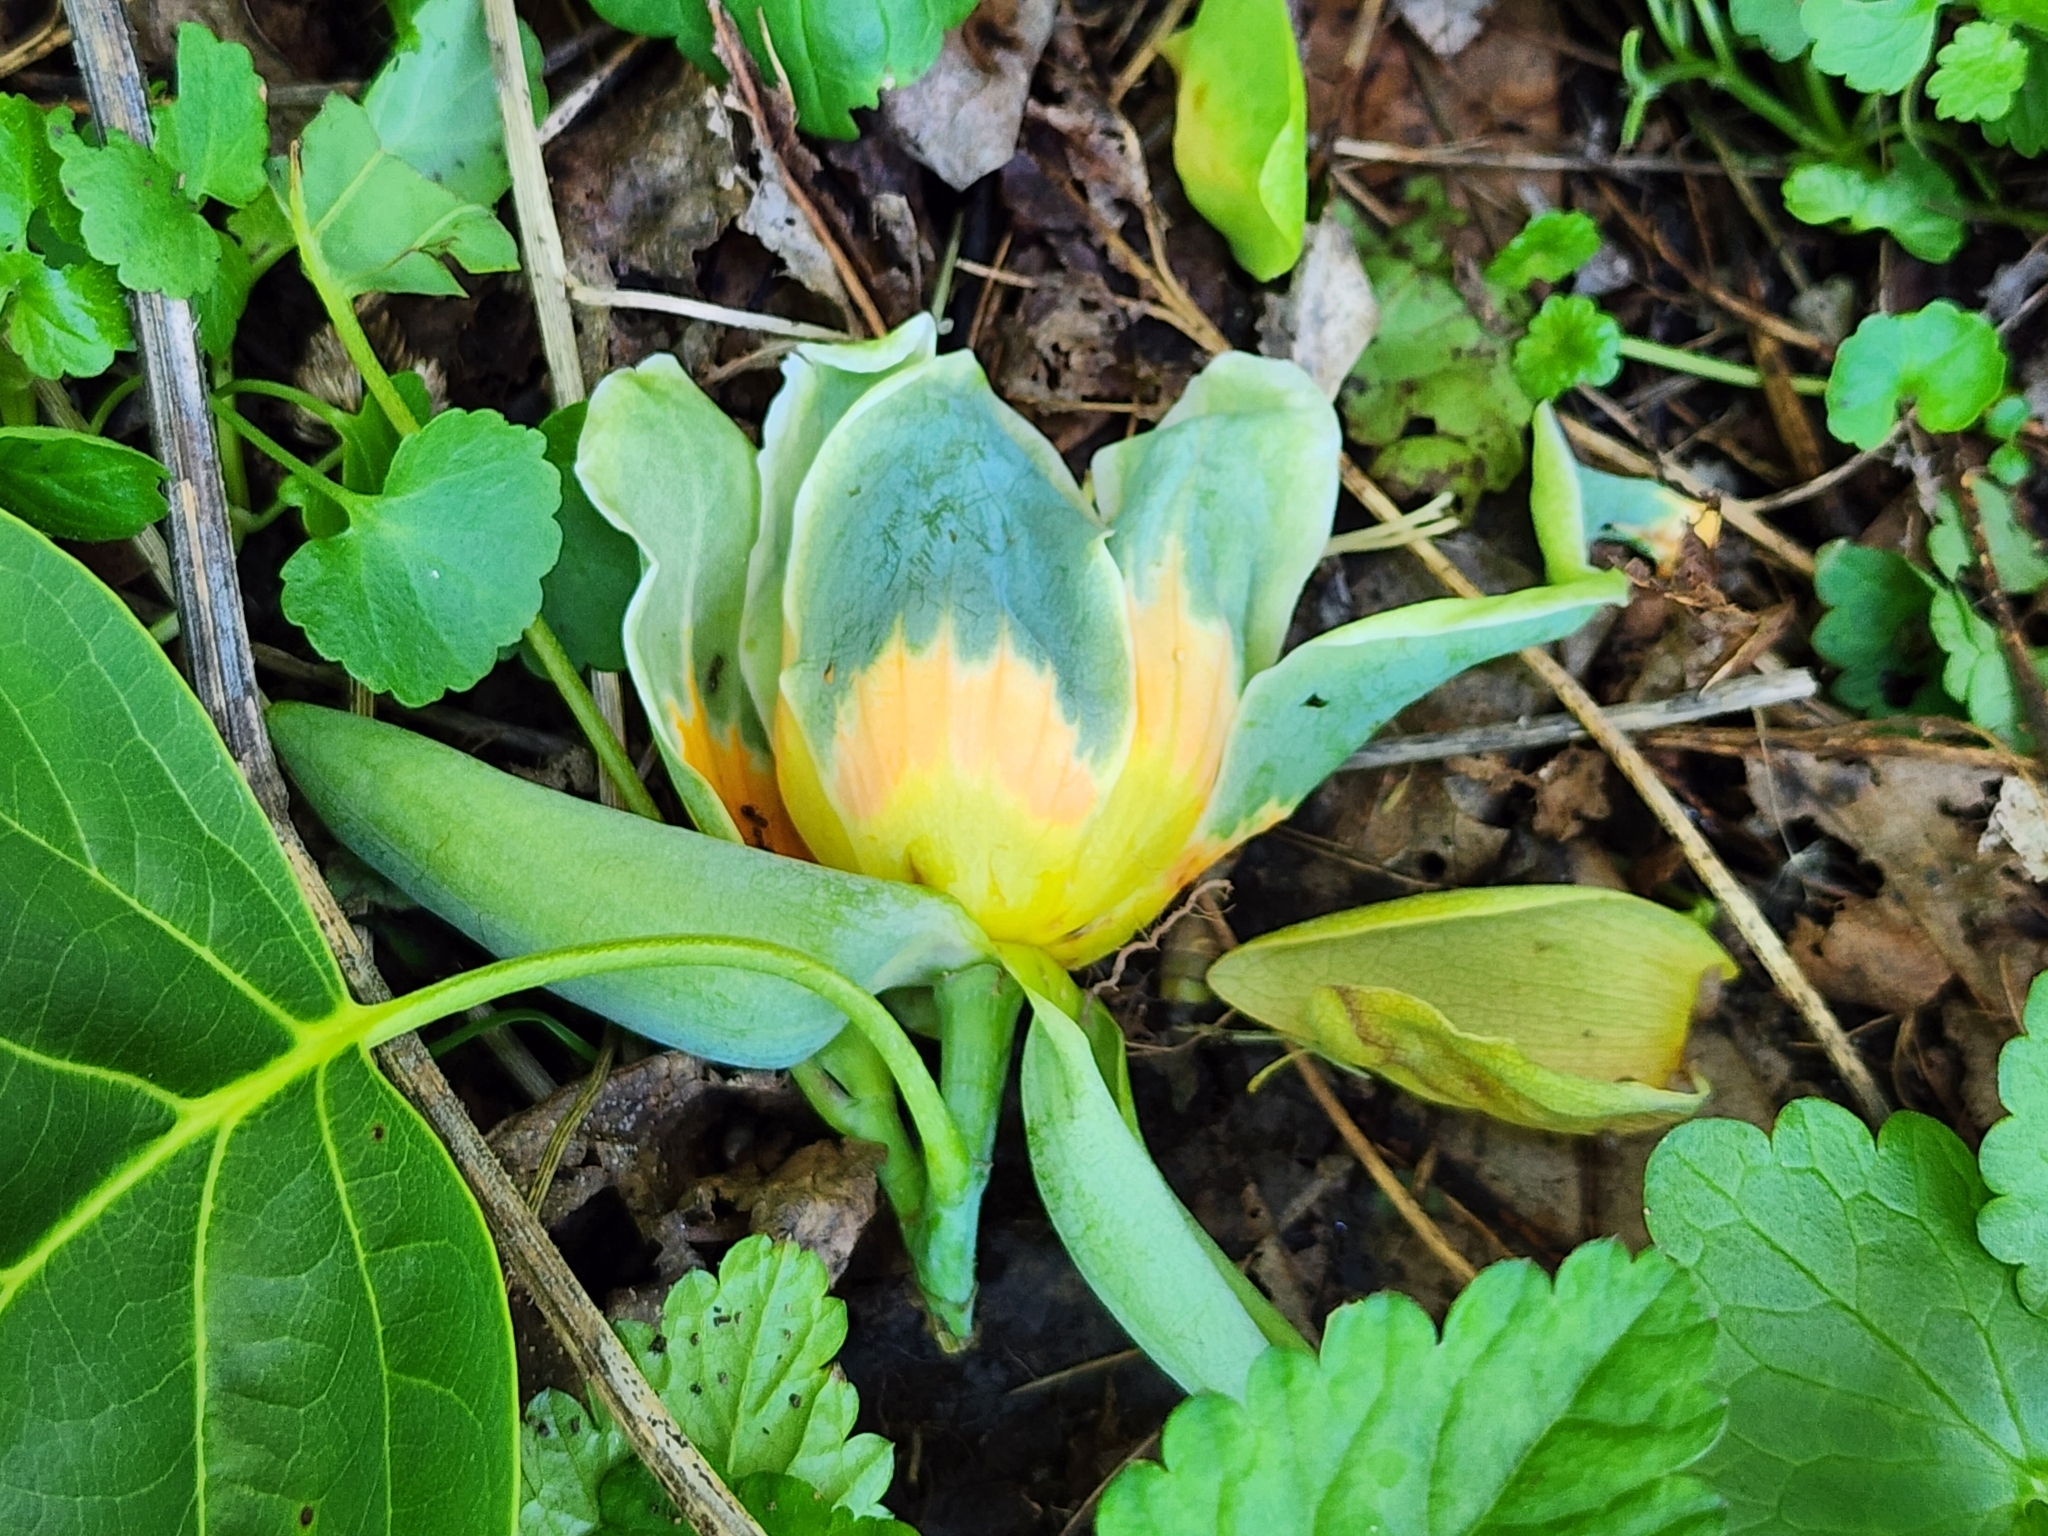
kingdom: Plantae
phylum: Tracheophyta
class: Magnoliopsida
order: Magnoliales
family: Magnoliaceae
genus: Liriodendron
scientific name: Liriodendron tulipifera
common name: Tulip tree
